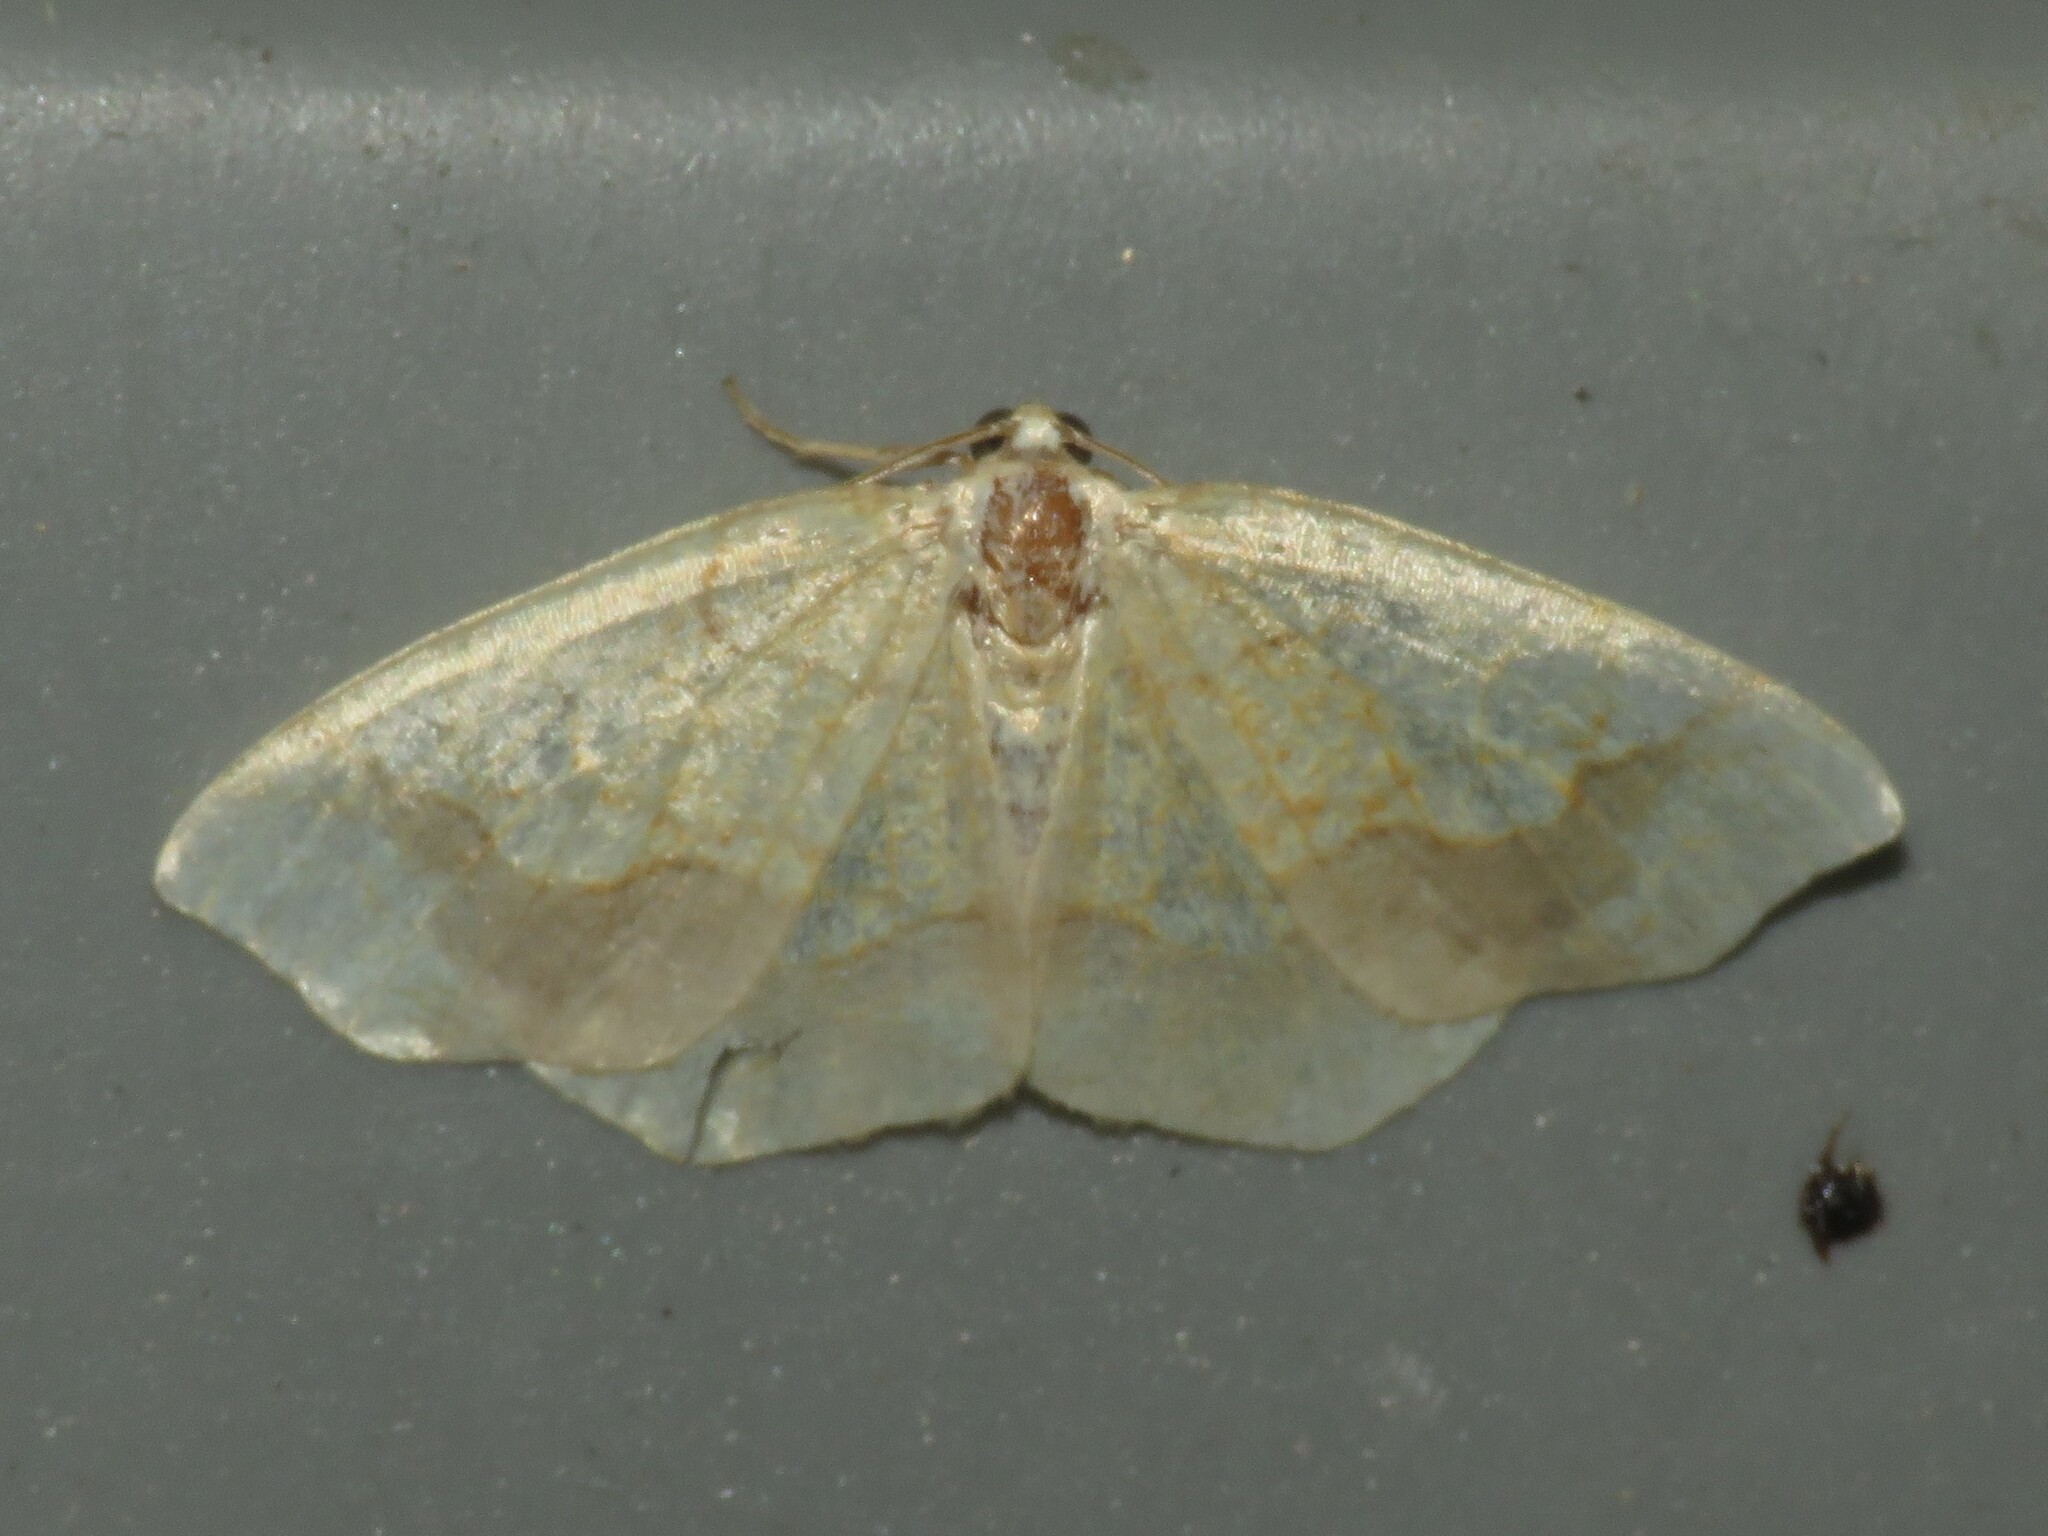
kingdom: Animalia
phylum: Arthropoda
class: Insecta
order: Lepidoptera
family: Geometridae
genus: Nematocampa
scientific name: Nematocampa resistaria
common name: Horned spanworm moth
